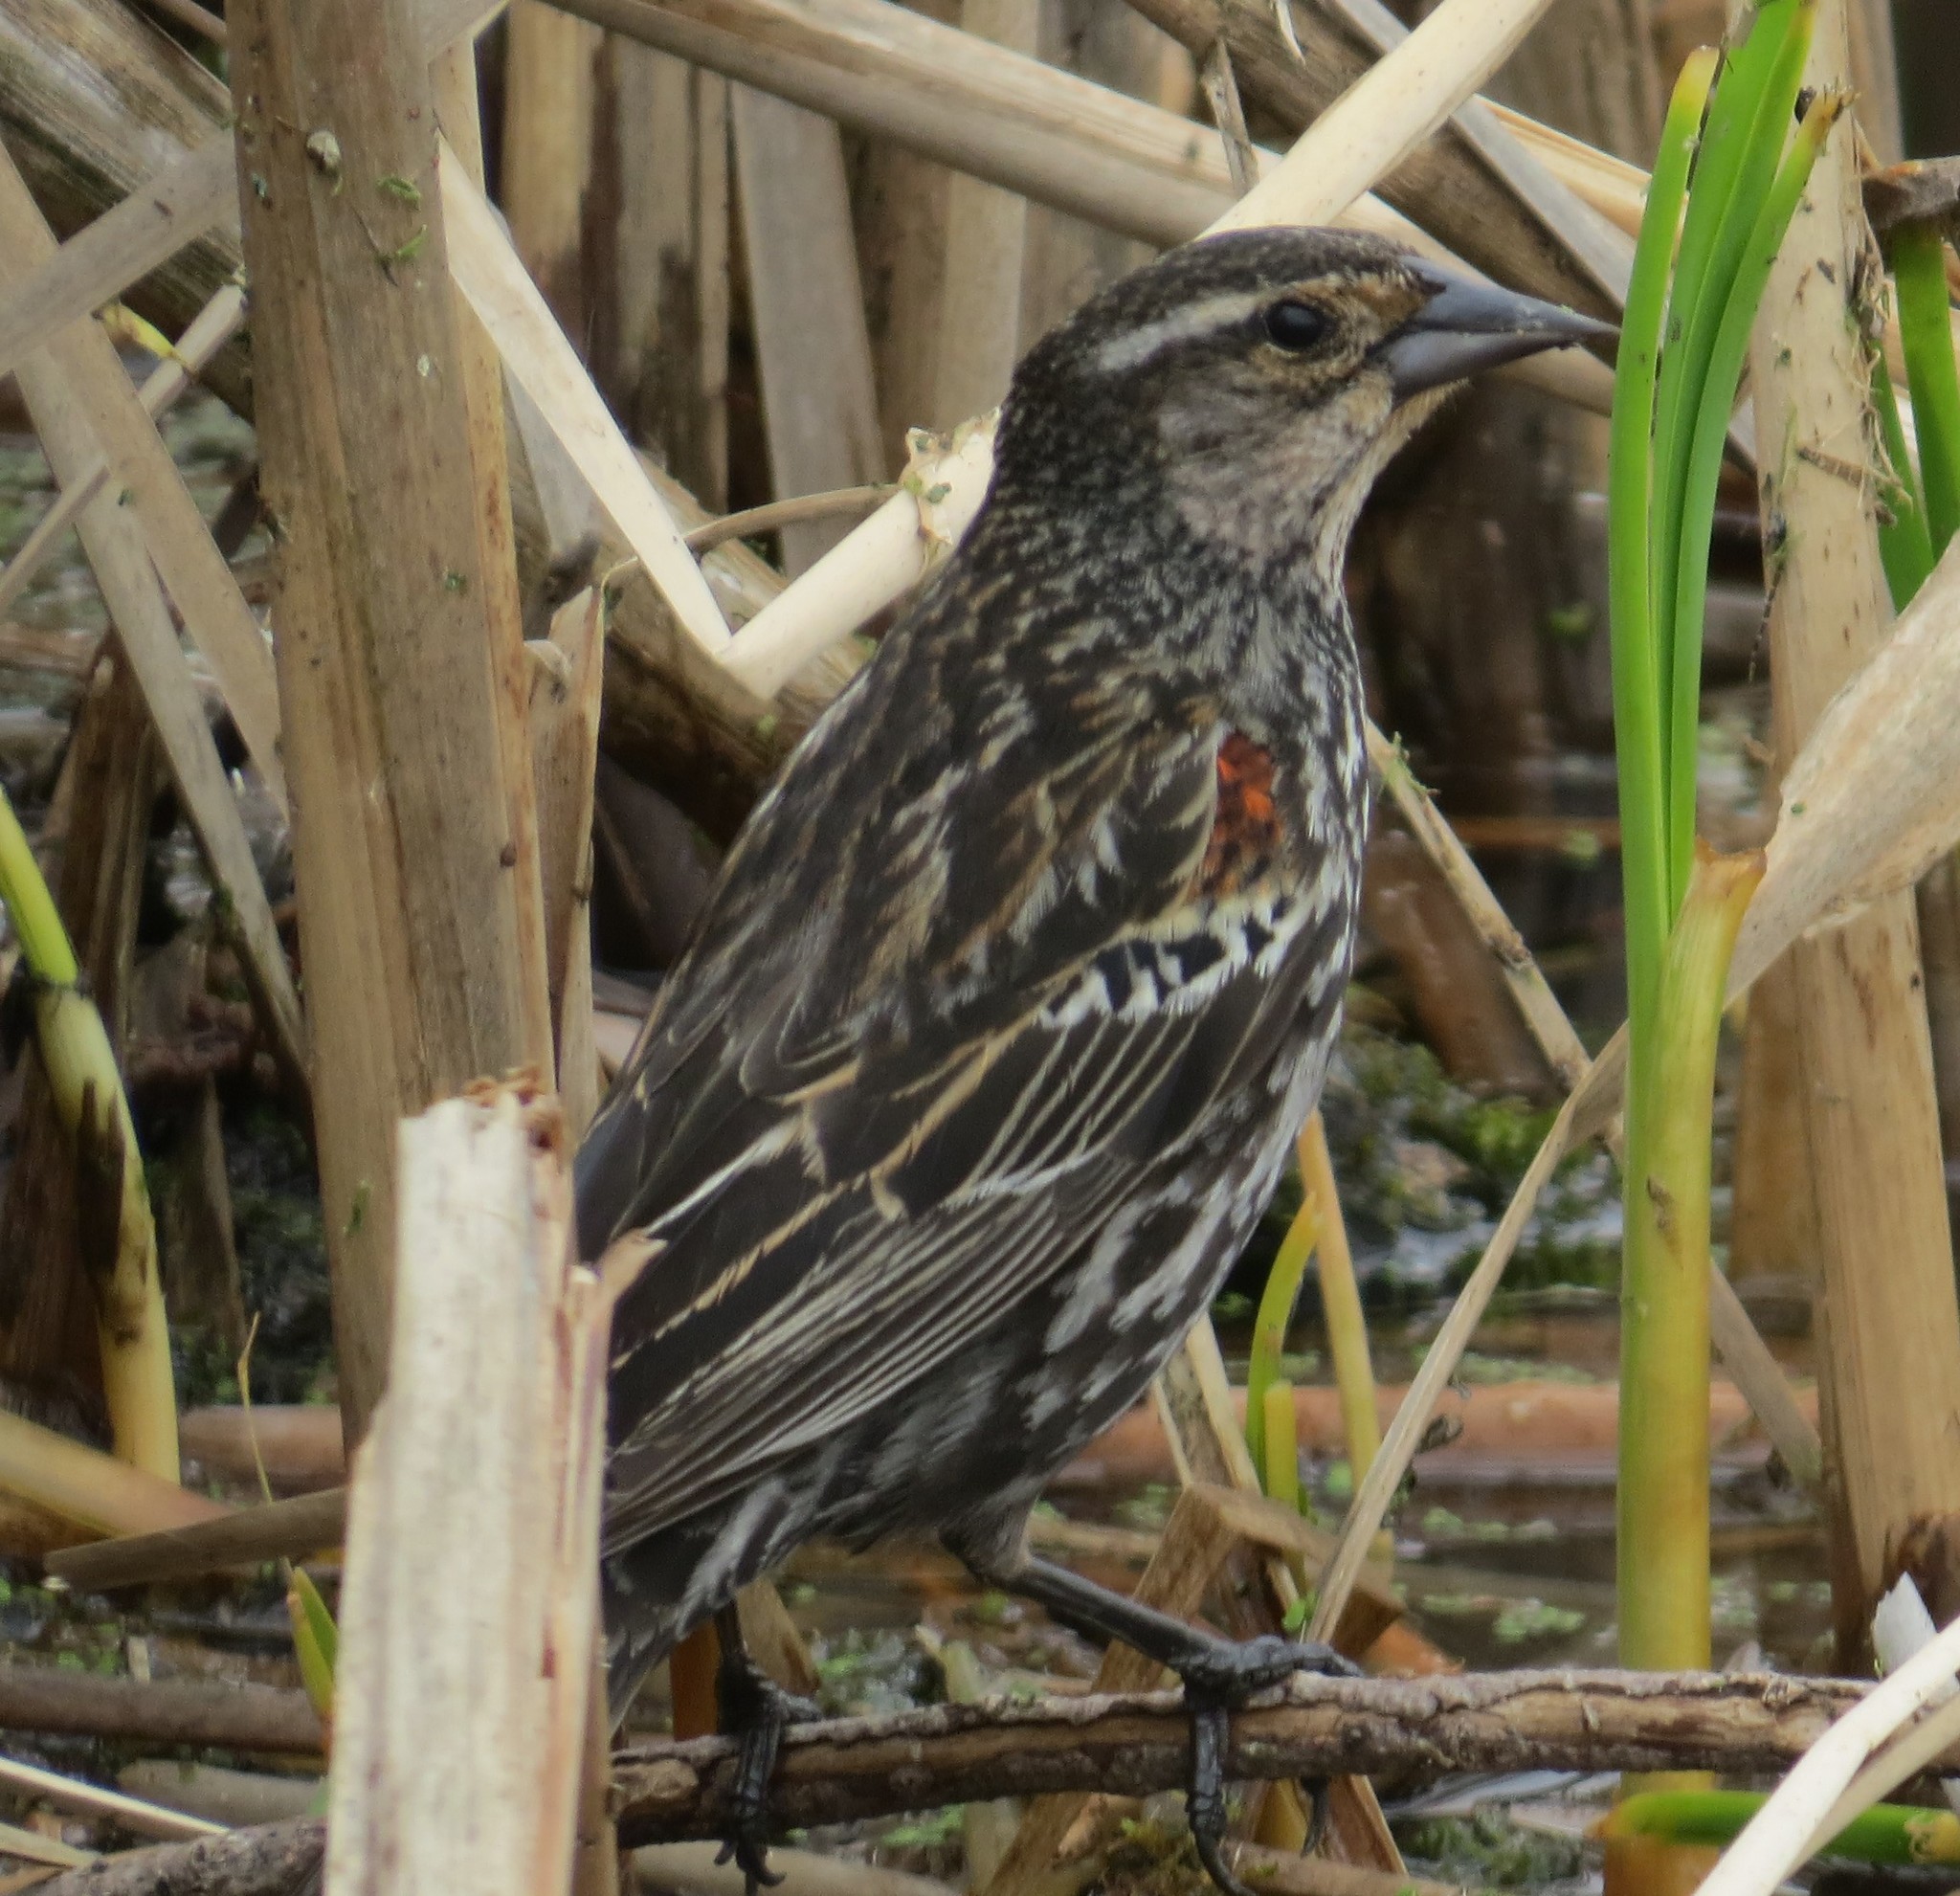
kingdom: Animalia
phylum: Chordata
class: Aves
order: Passeriformes
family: Icteridae
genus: Agelaius
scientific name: Agelaius phoeniceus
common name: Red-winged blackbird
